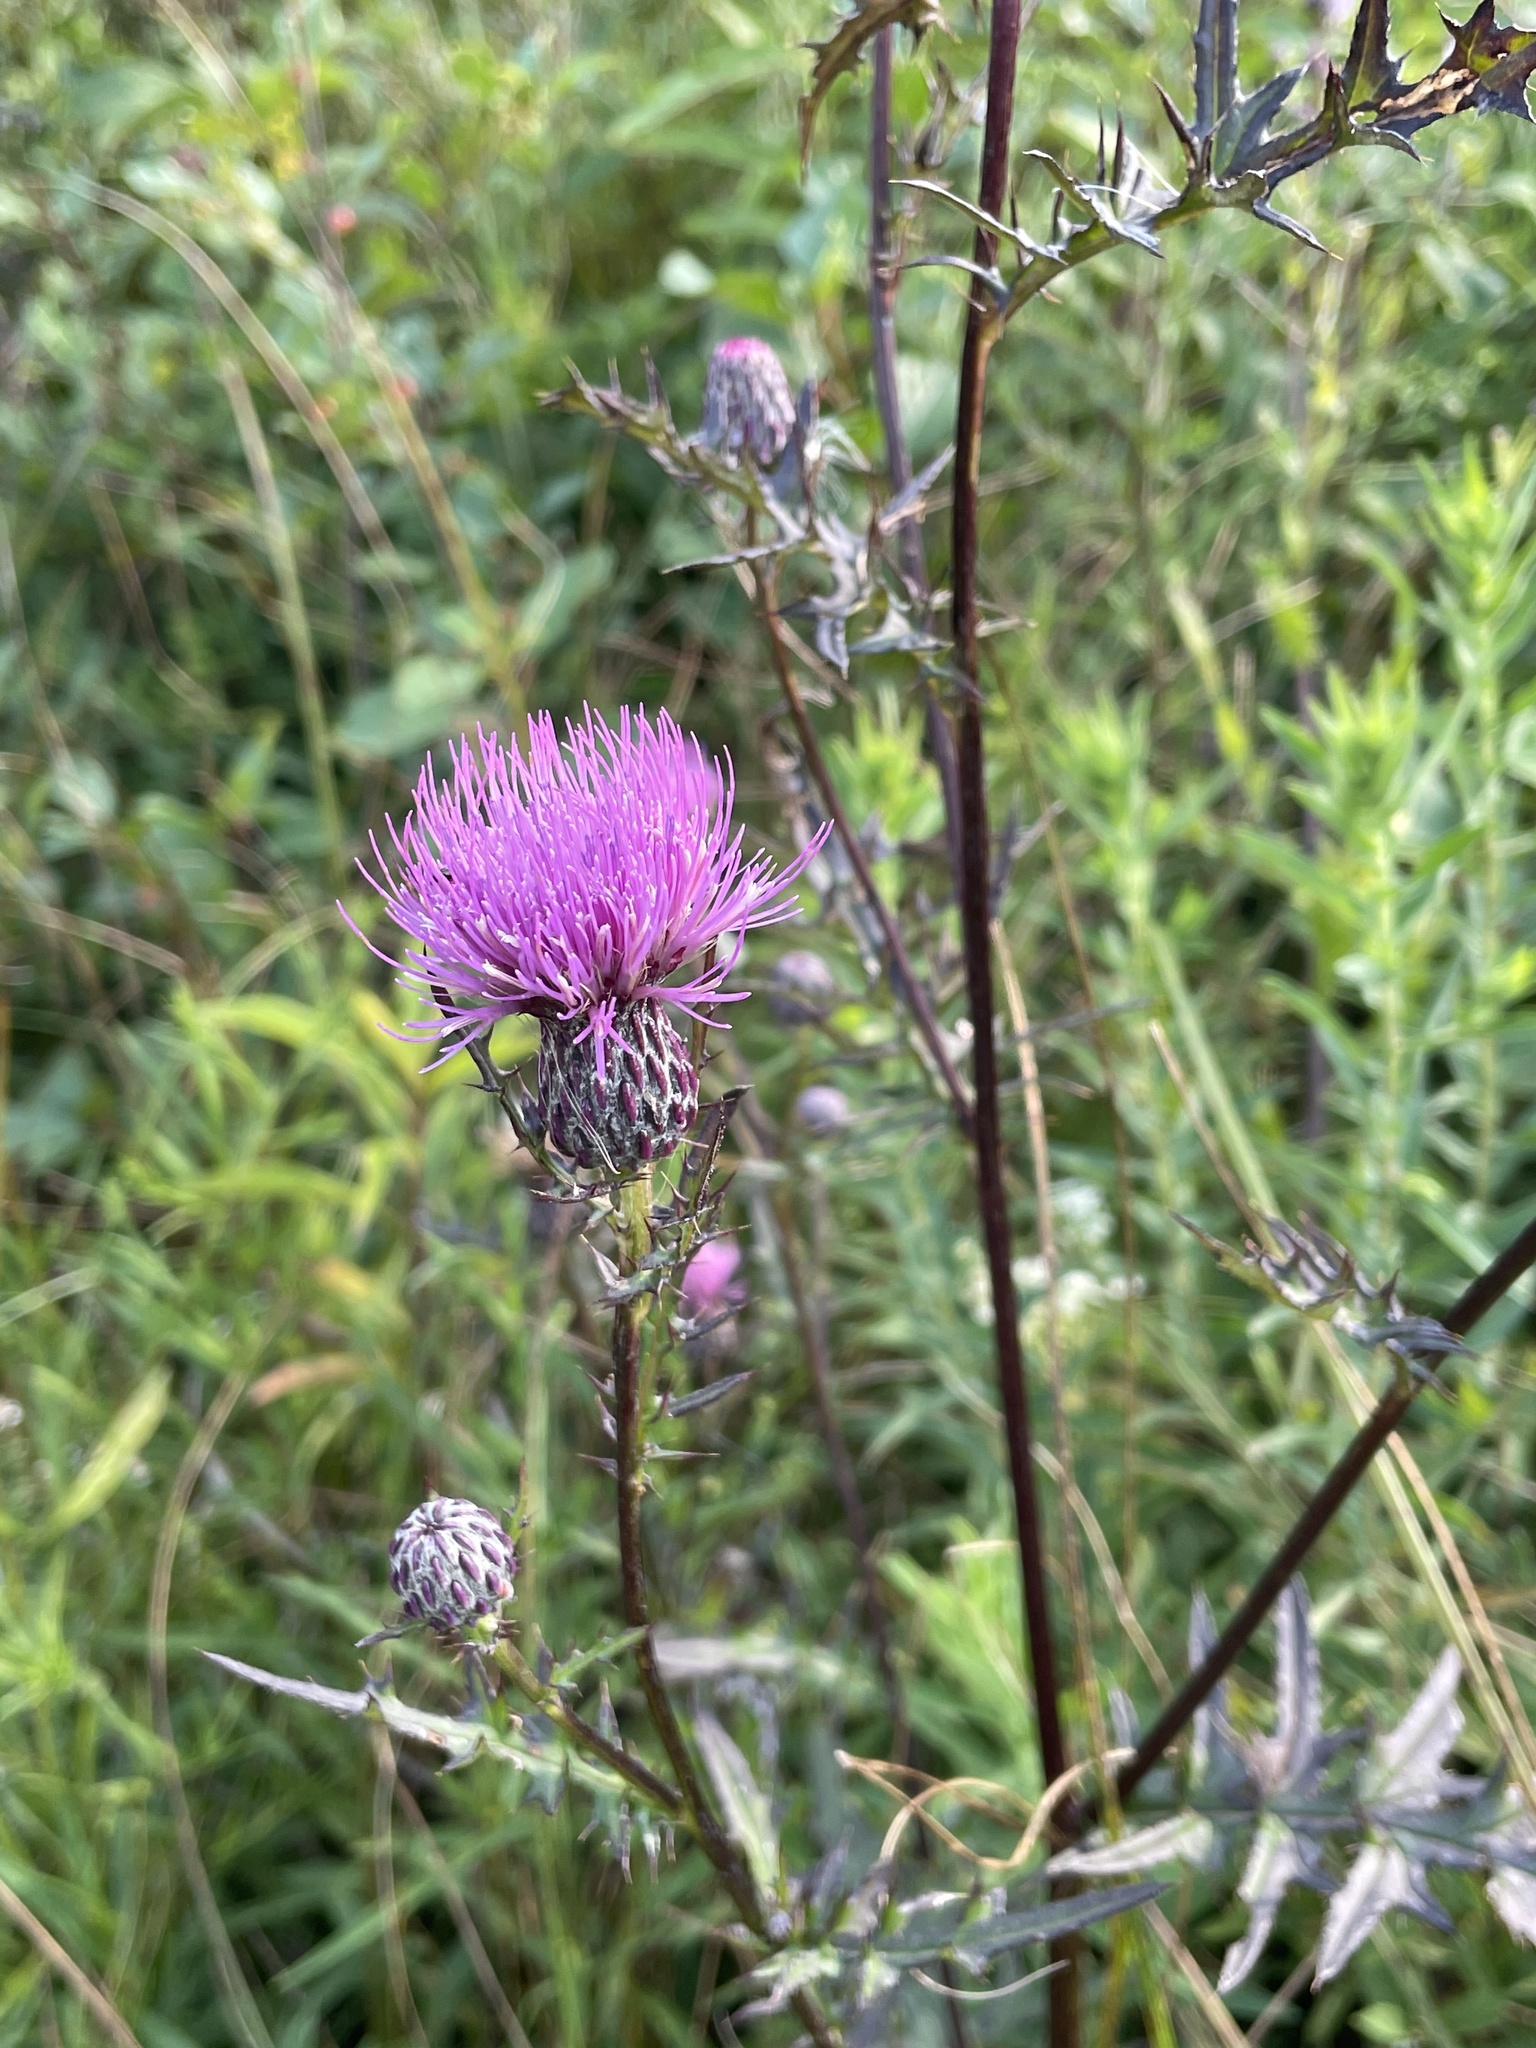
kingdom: Plantae
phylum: Tracheophyta
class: Magnoliopsida
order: Asterales
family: Asteraceae
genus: Cirsium
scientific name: Cirsium muticum
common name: Dunce-nettle
